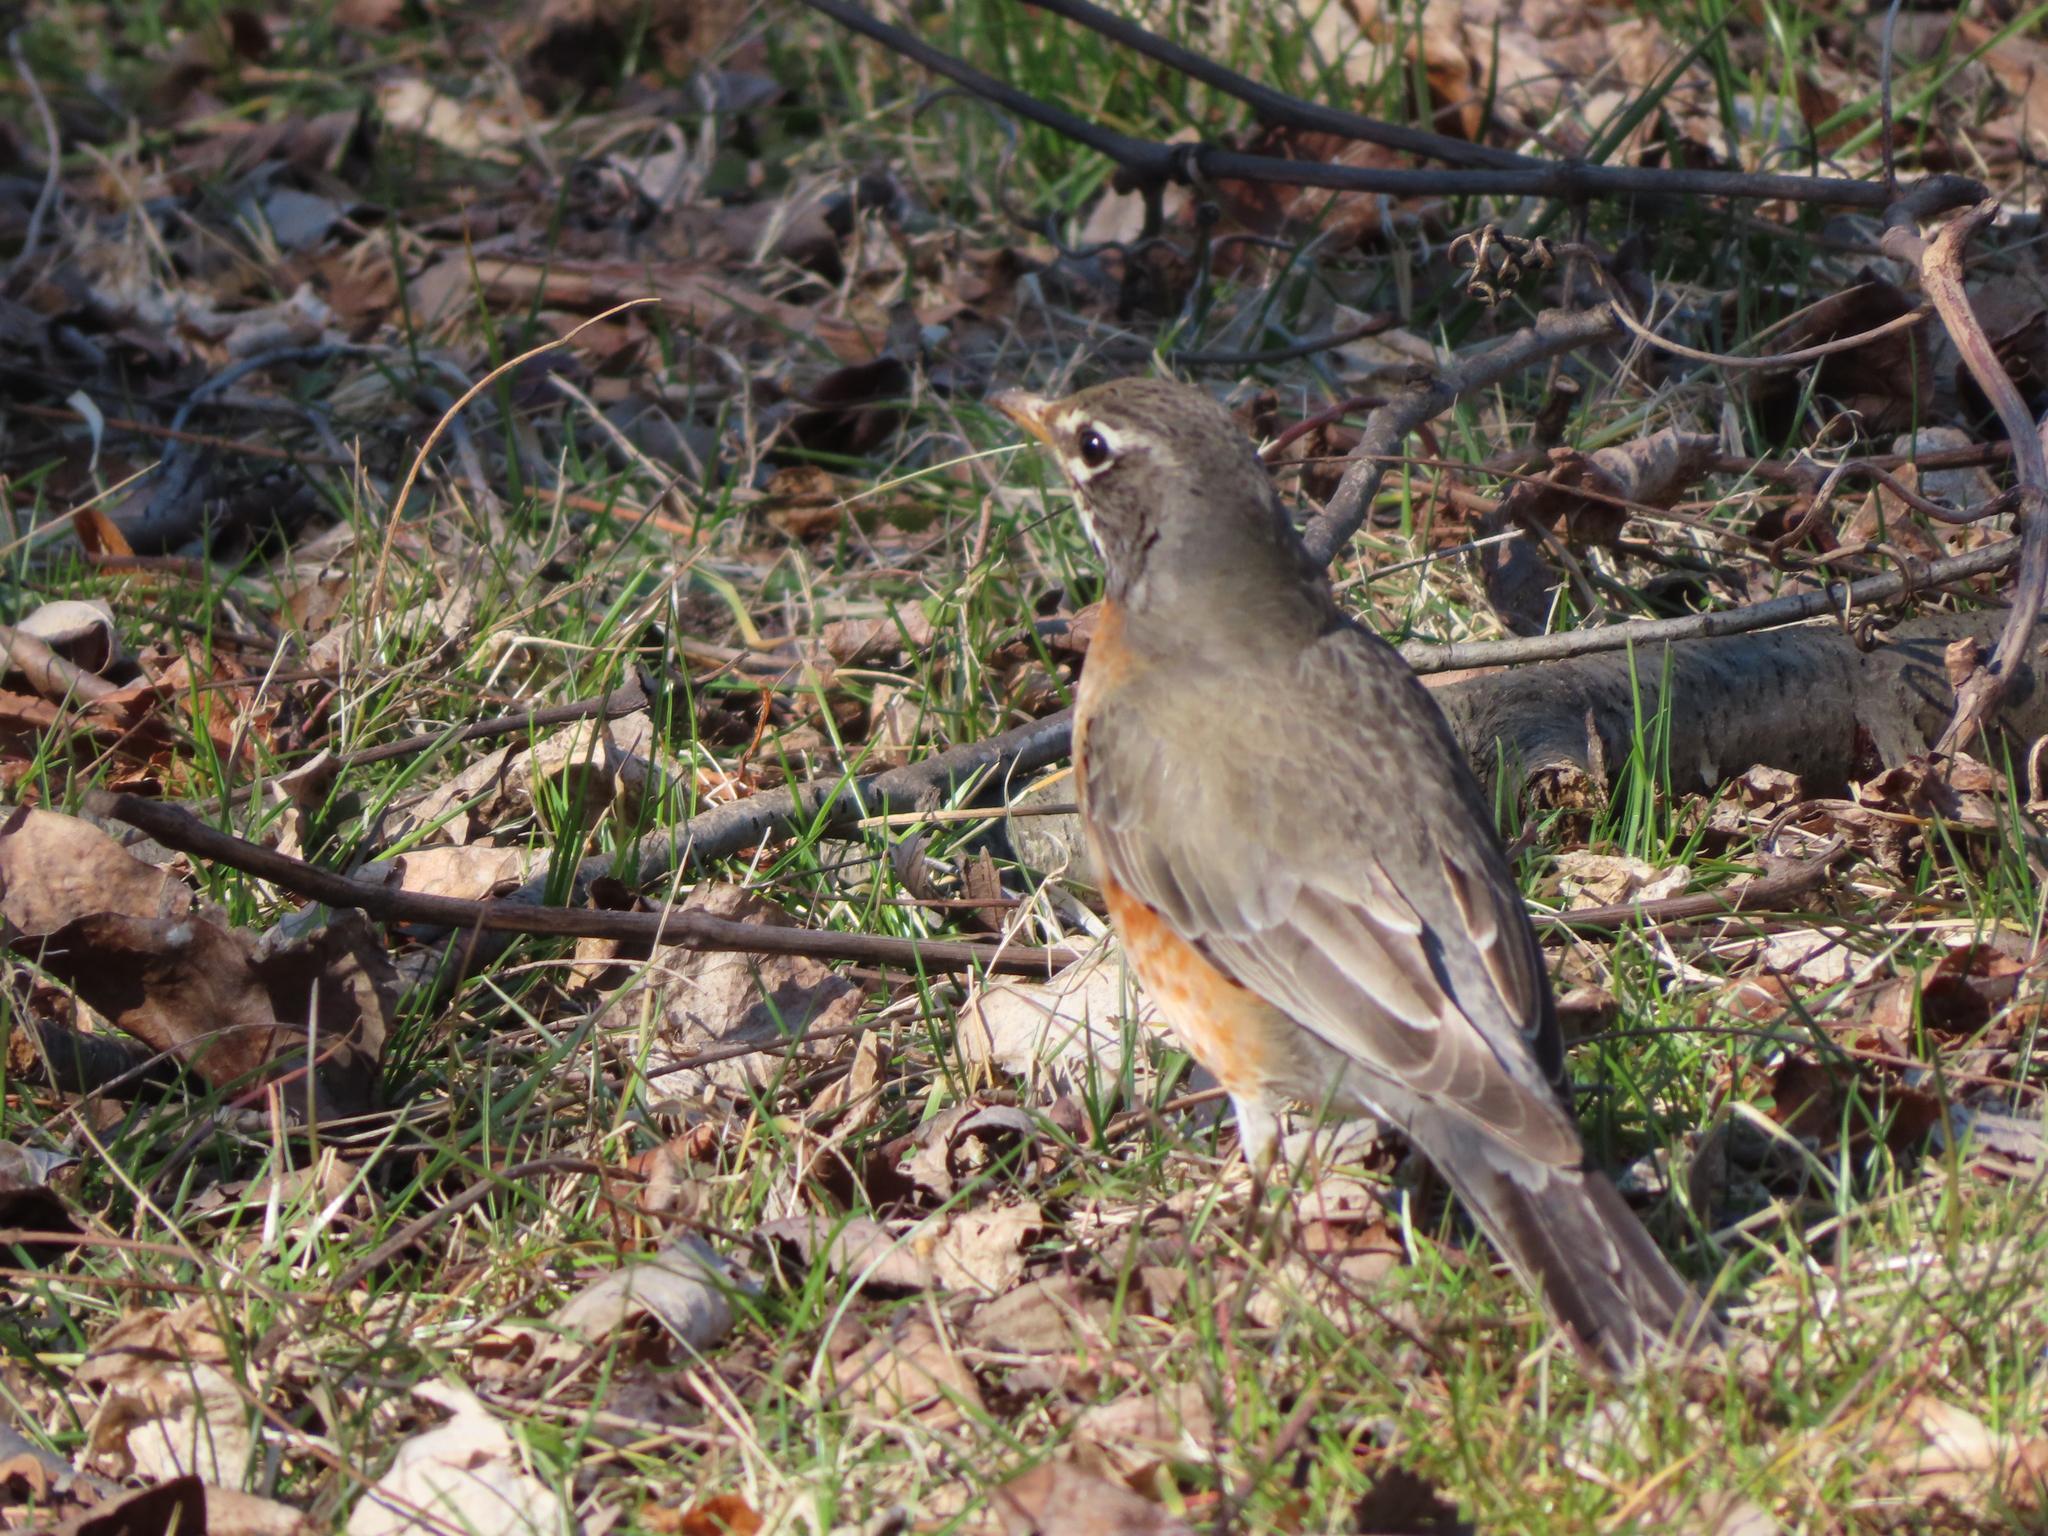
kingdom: Animalia
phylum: Chordata
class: Aves
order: Passeriformes
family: Turdidae
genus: Turdus
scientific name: Turdus migratorius
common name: American robin
